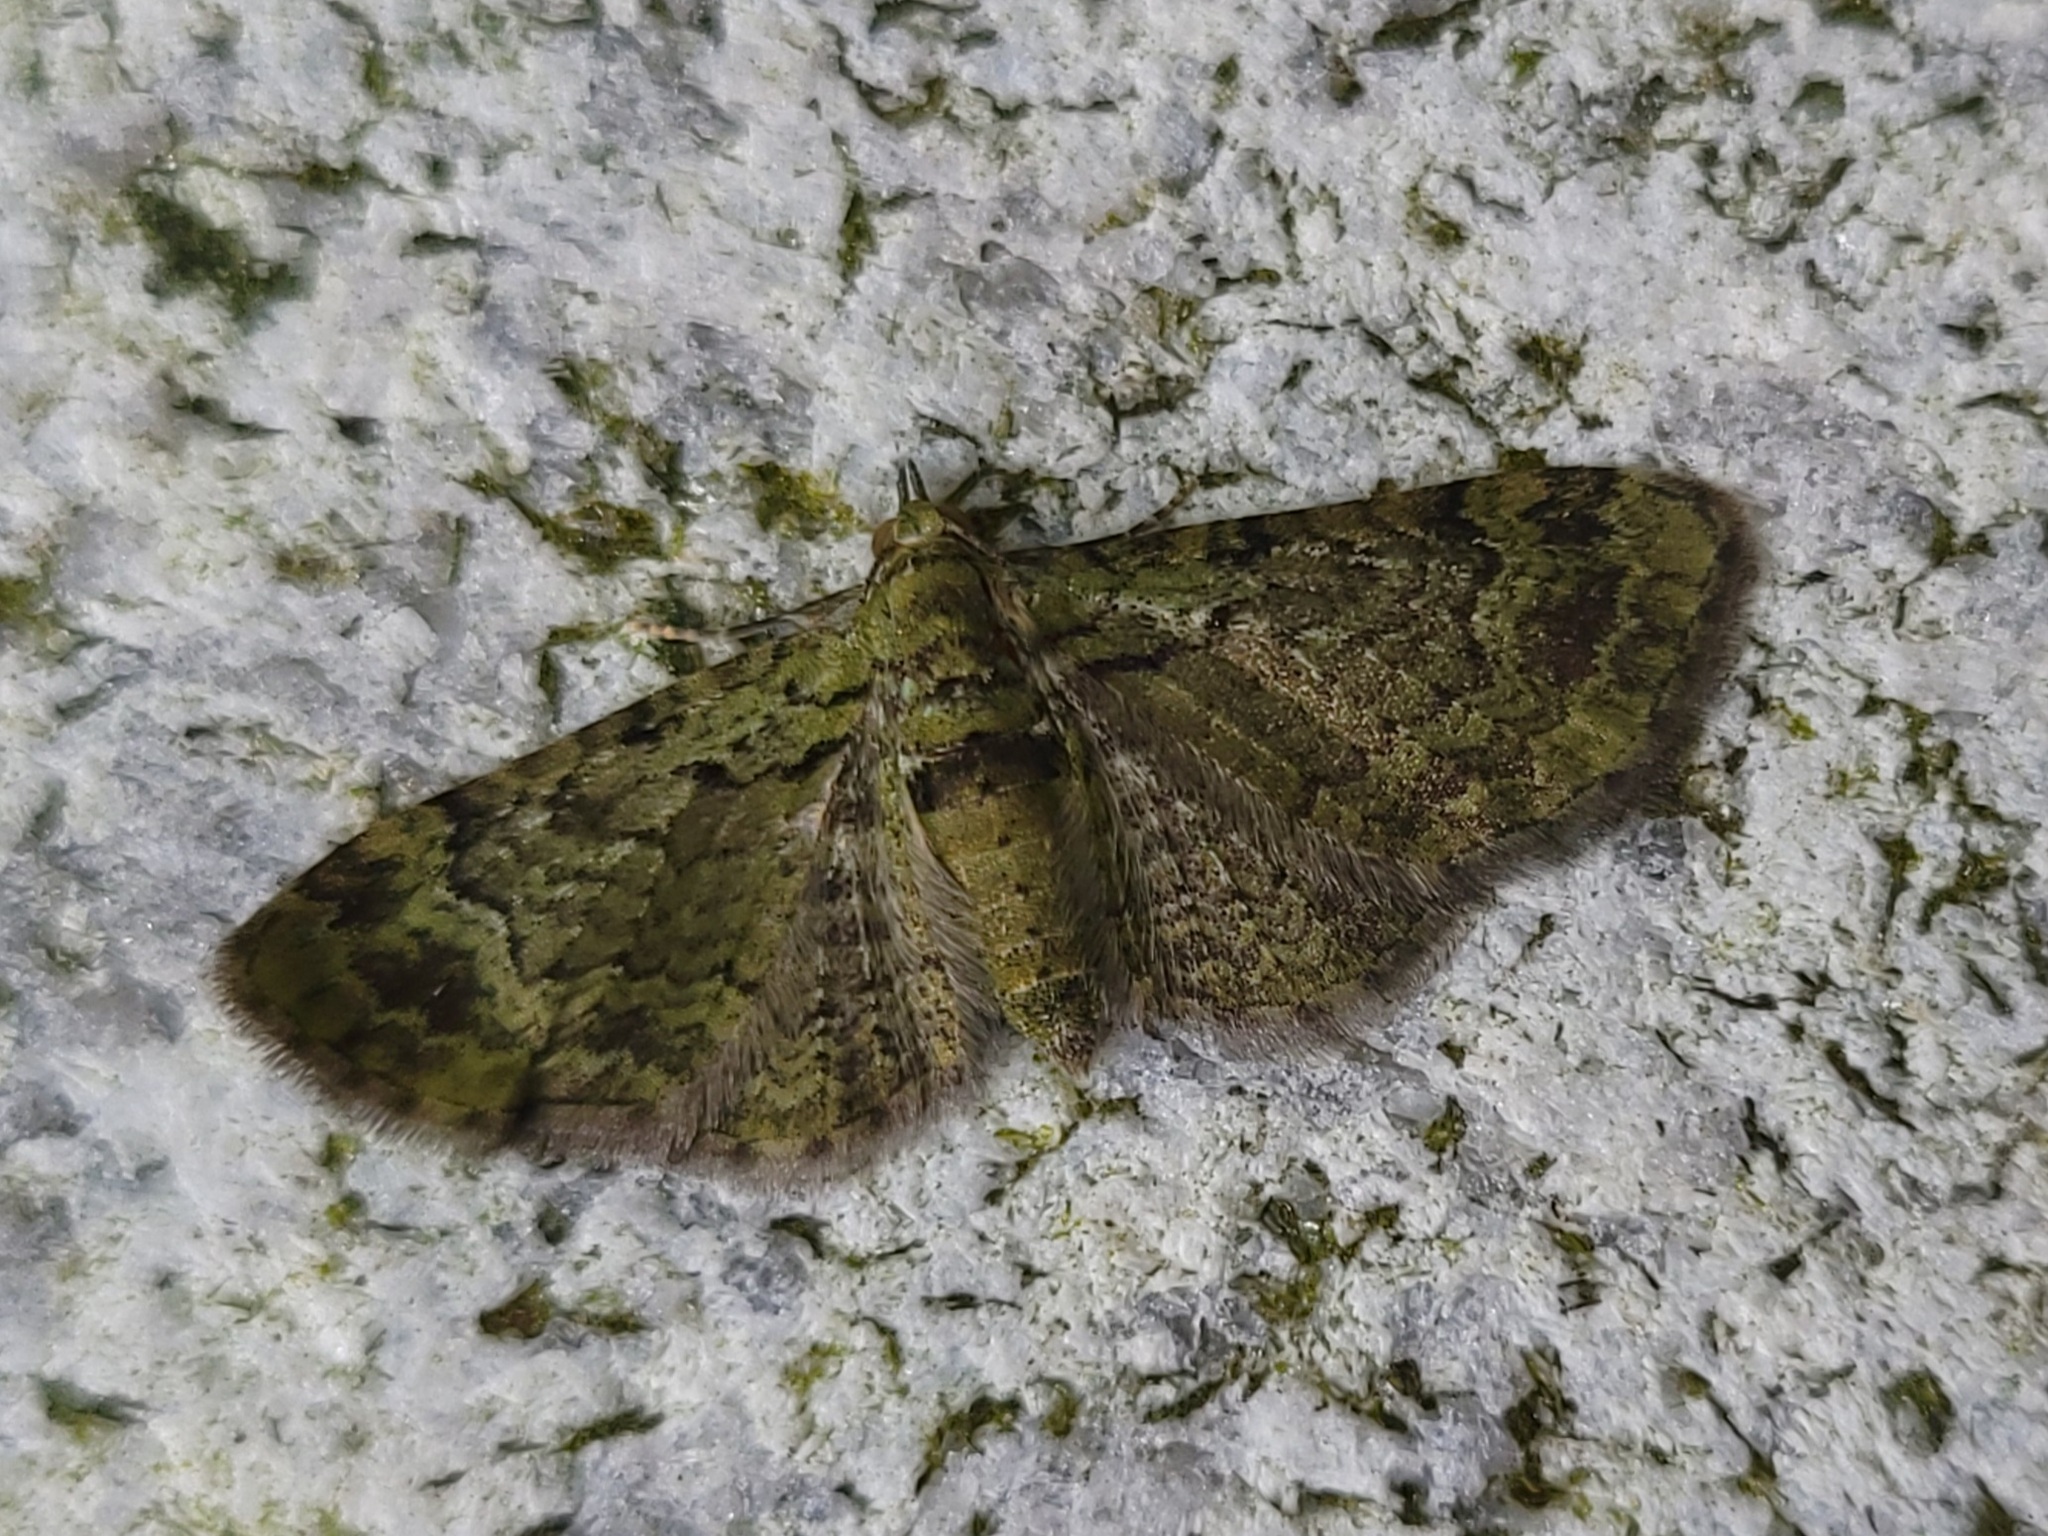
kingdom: Animalia
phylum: Arthropoda
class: Insecta
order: Lepidoptera
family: Geometridae
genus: Pasiphila
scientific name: Pasiphila rectangulata
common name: Green pug
